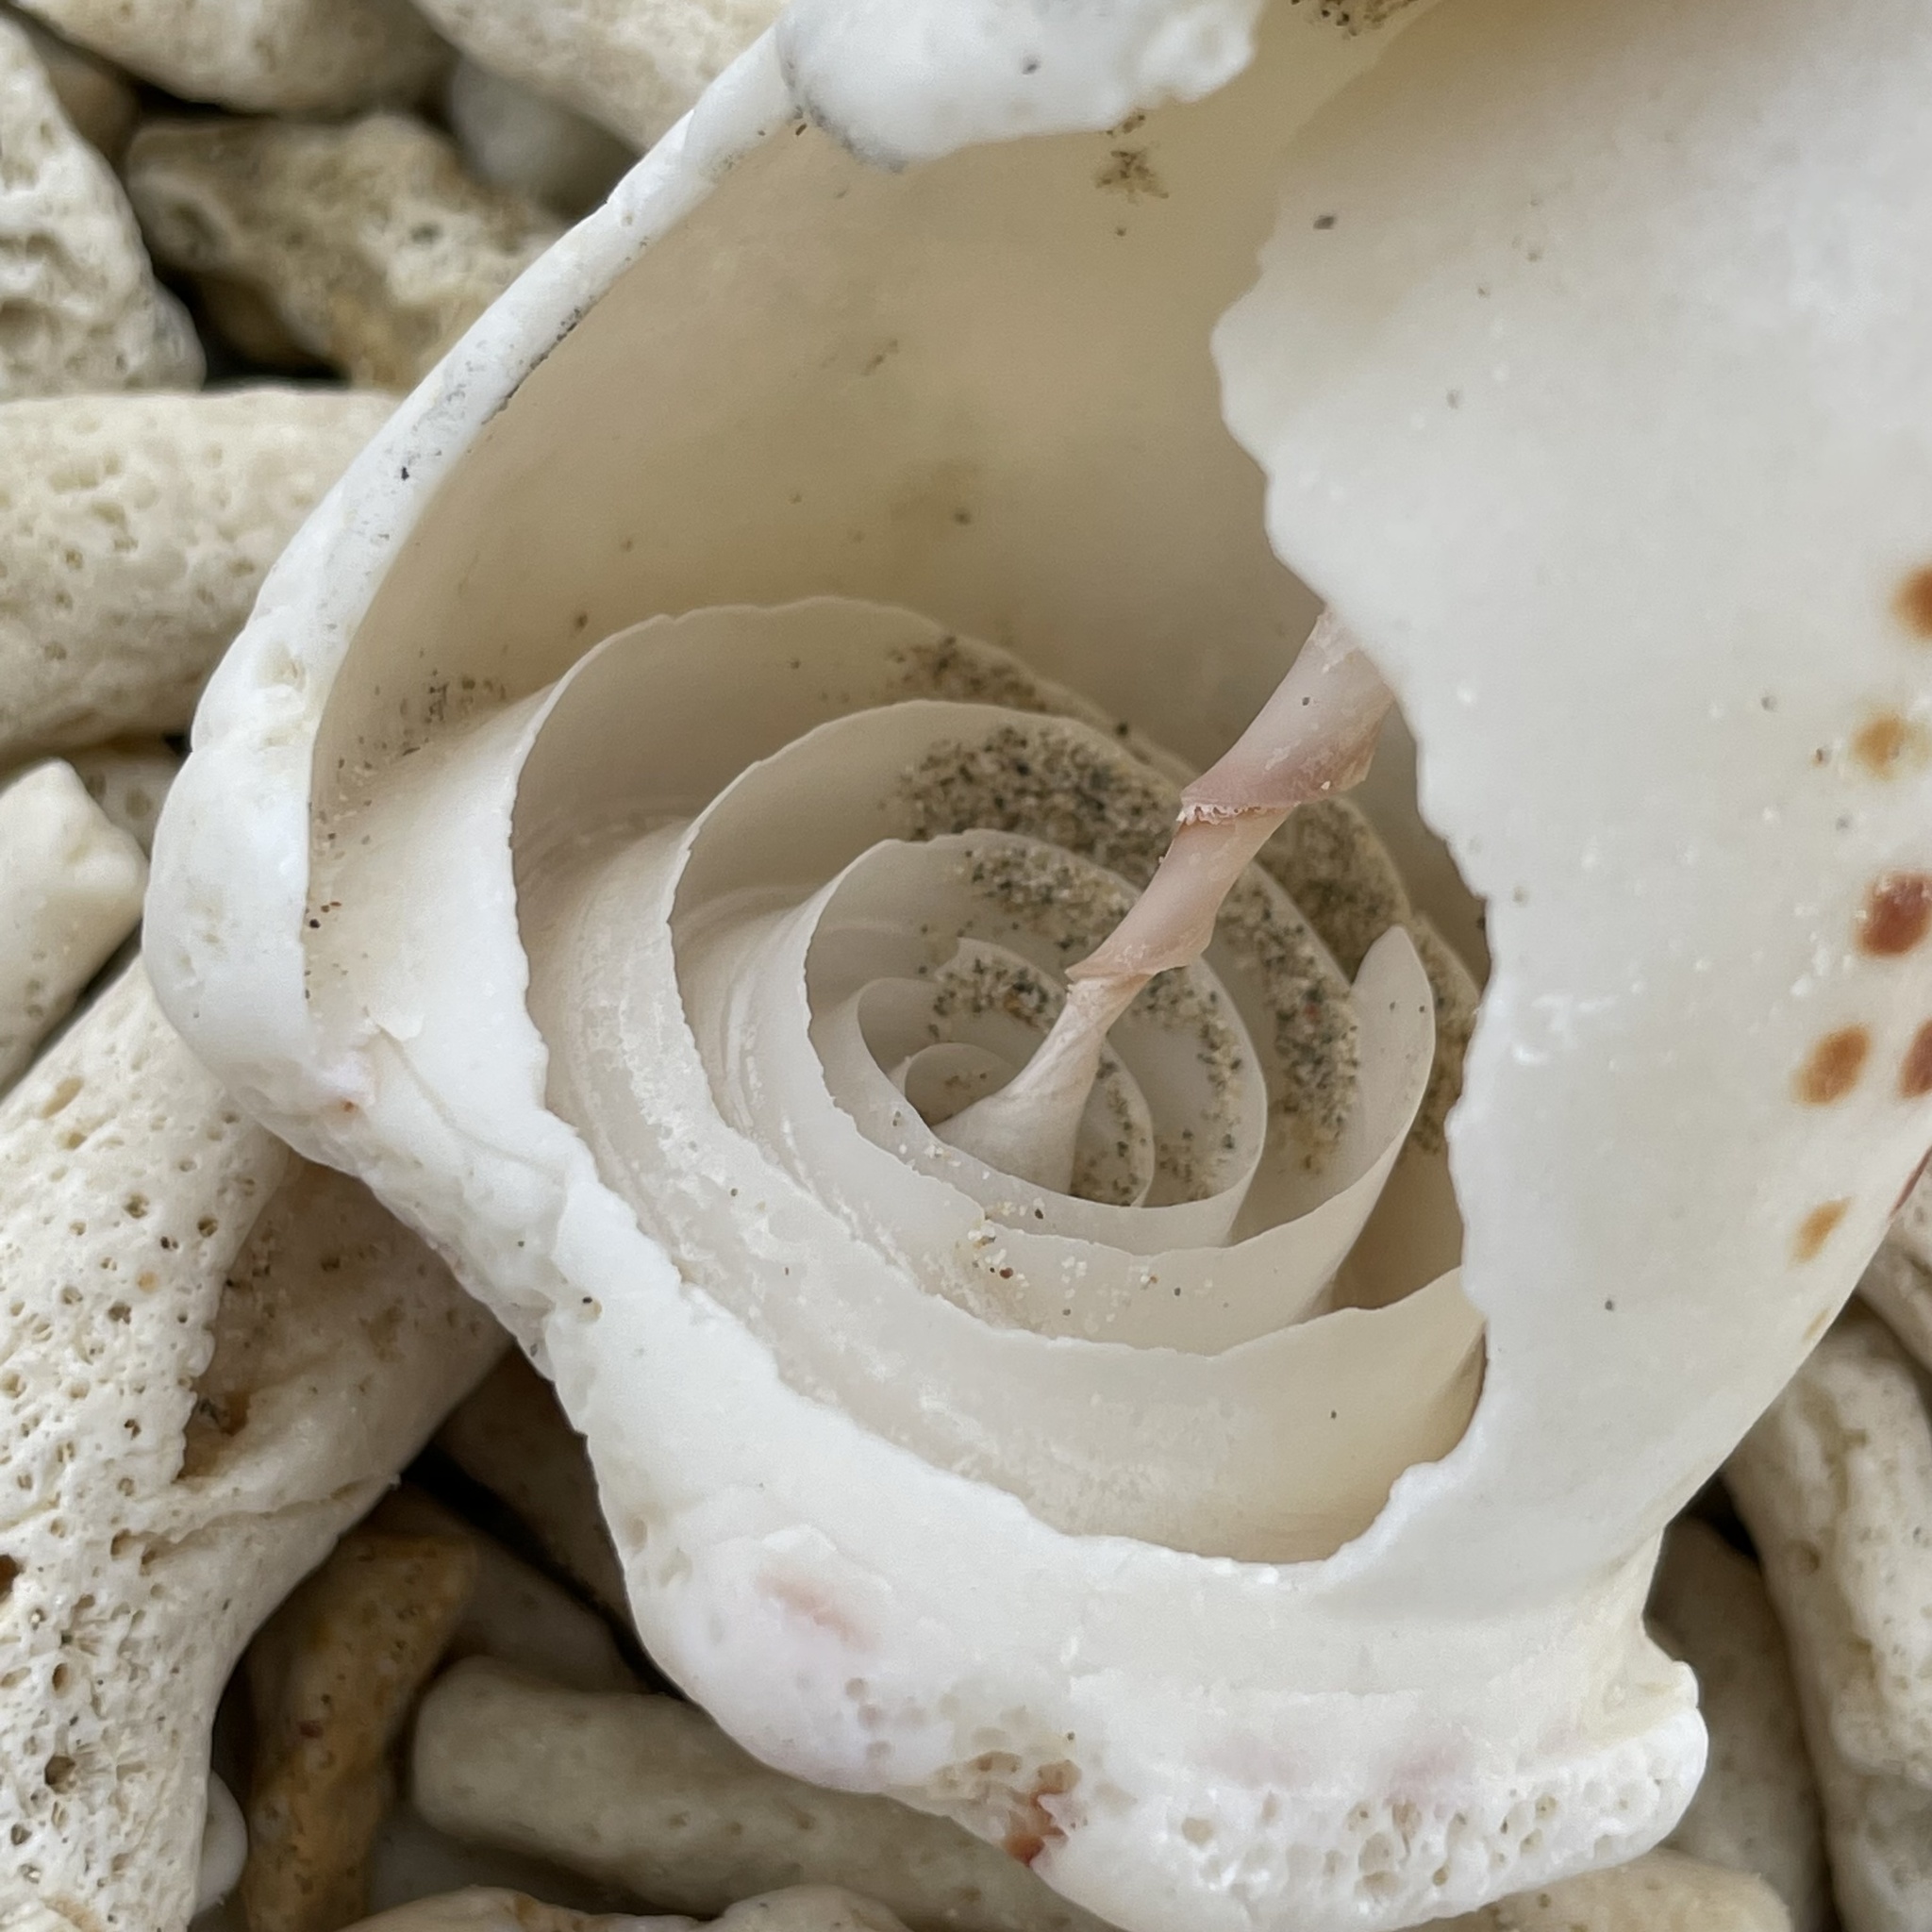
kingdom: Animalia
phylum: Mollusca
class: Gastropoda
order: Neogastropoda
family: Conidae
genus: Conus
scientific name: Conus litteratus
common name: Lettered cone
